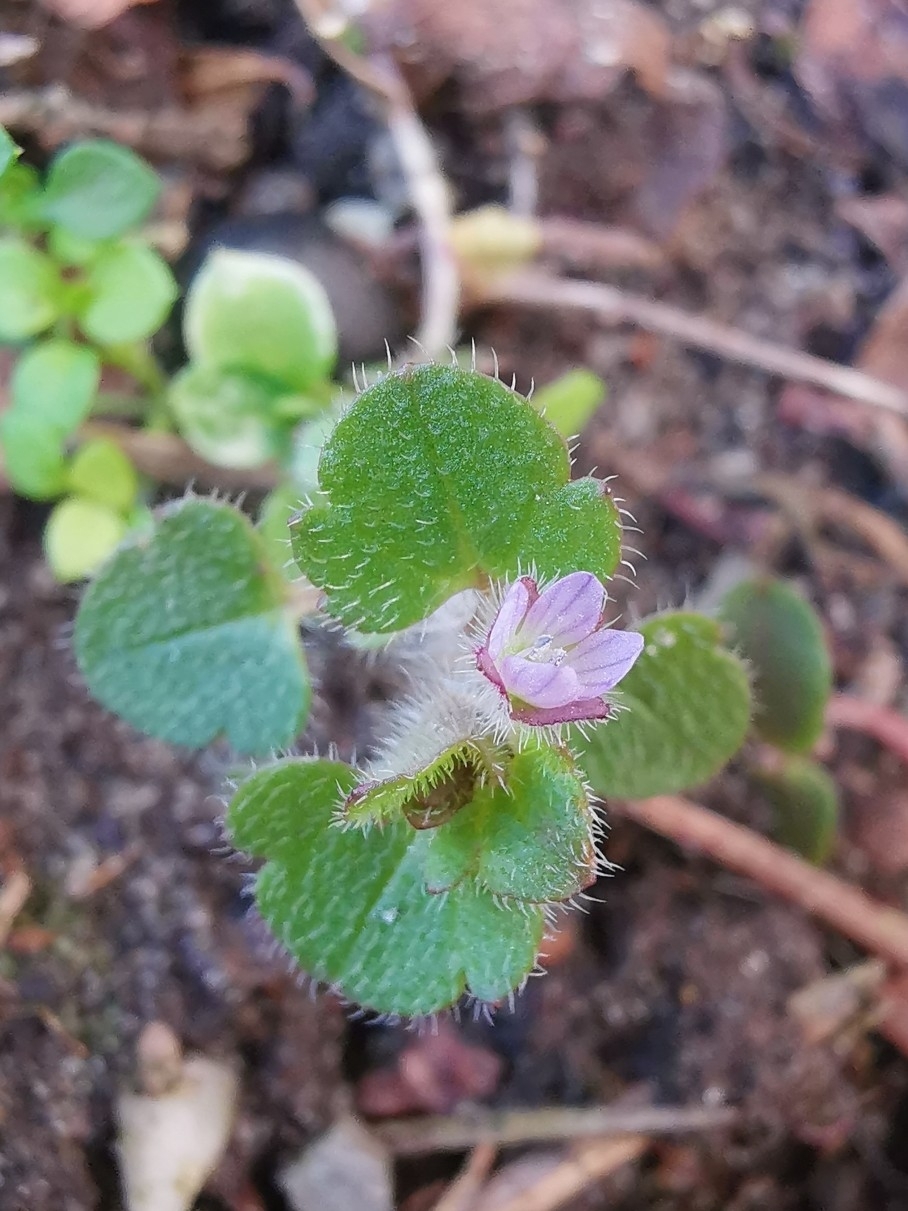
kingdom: Plantae
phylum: Tracheophyta
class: Magnoliopsida
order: Lamiales
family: Plantaginaceae
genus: Veronica
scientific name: Veronica hederifolia
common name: Ivy-leaved speedwell
